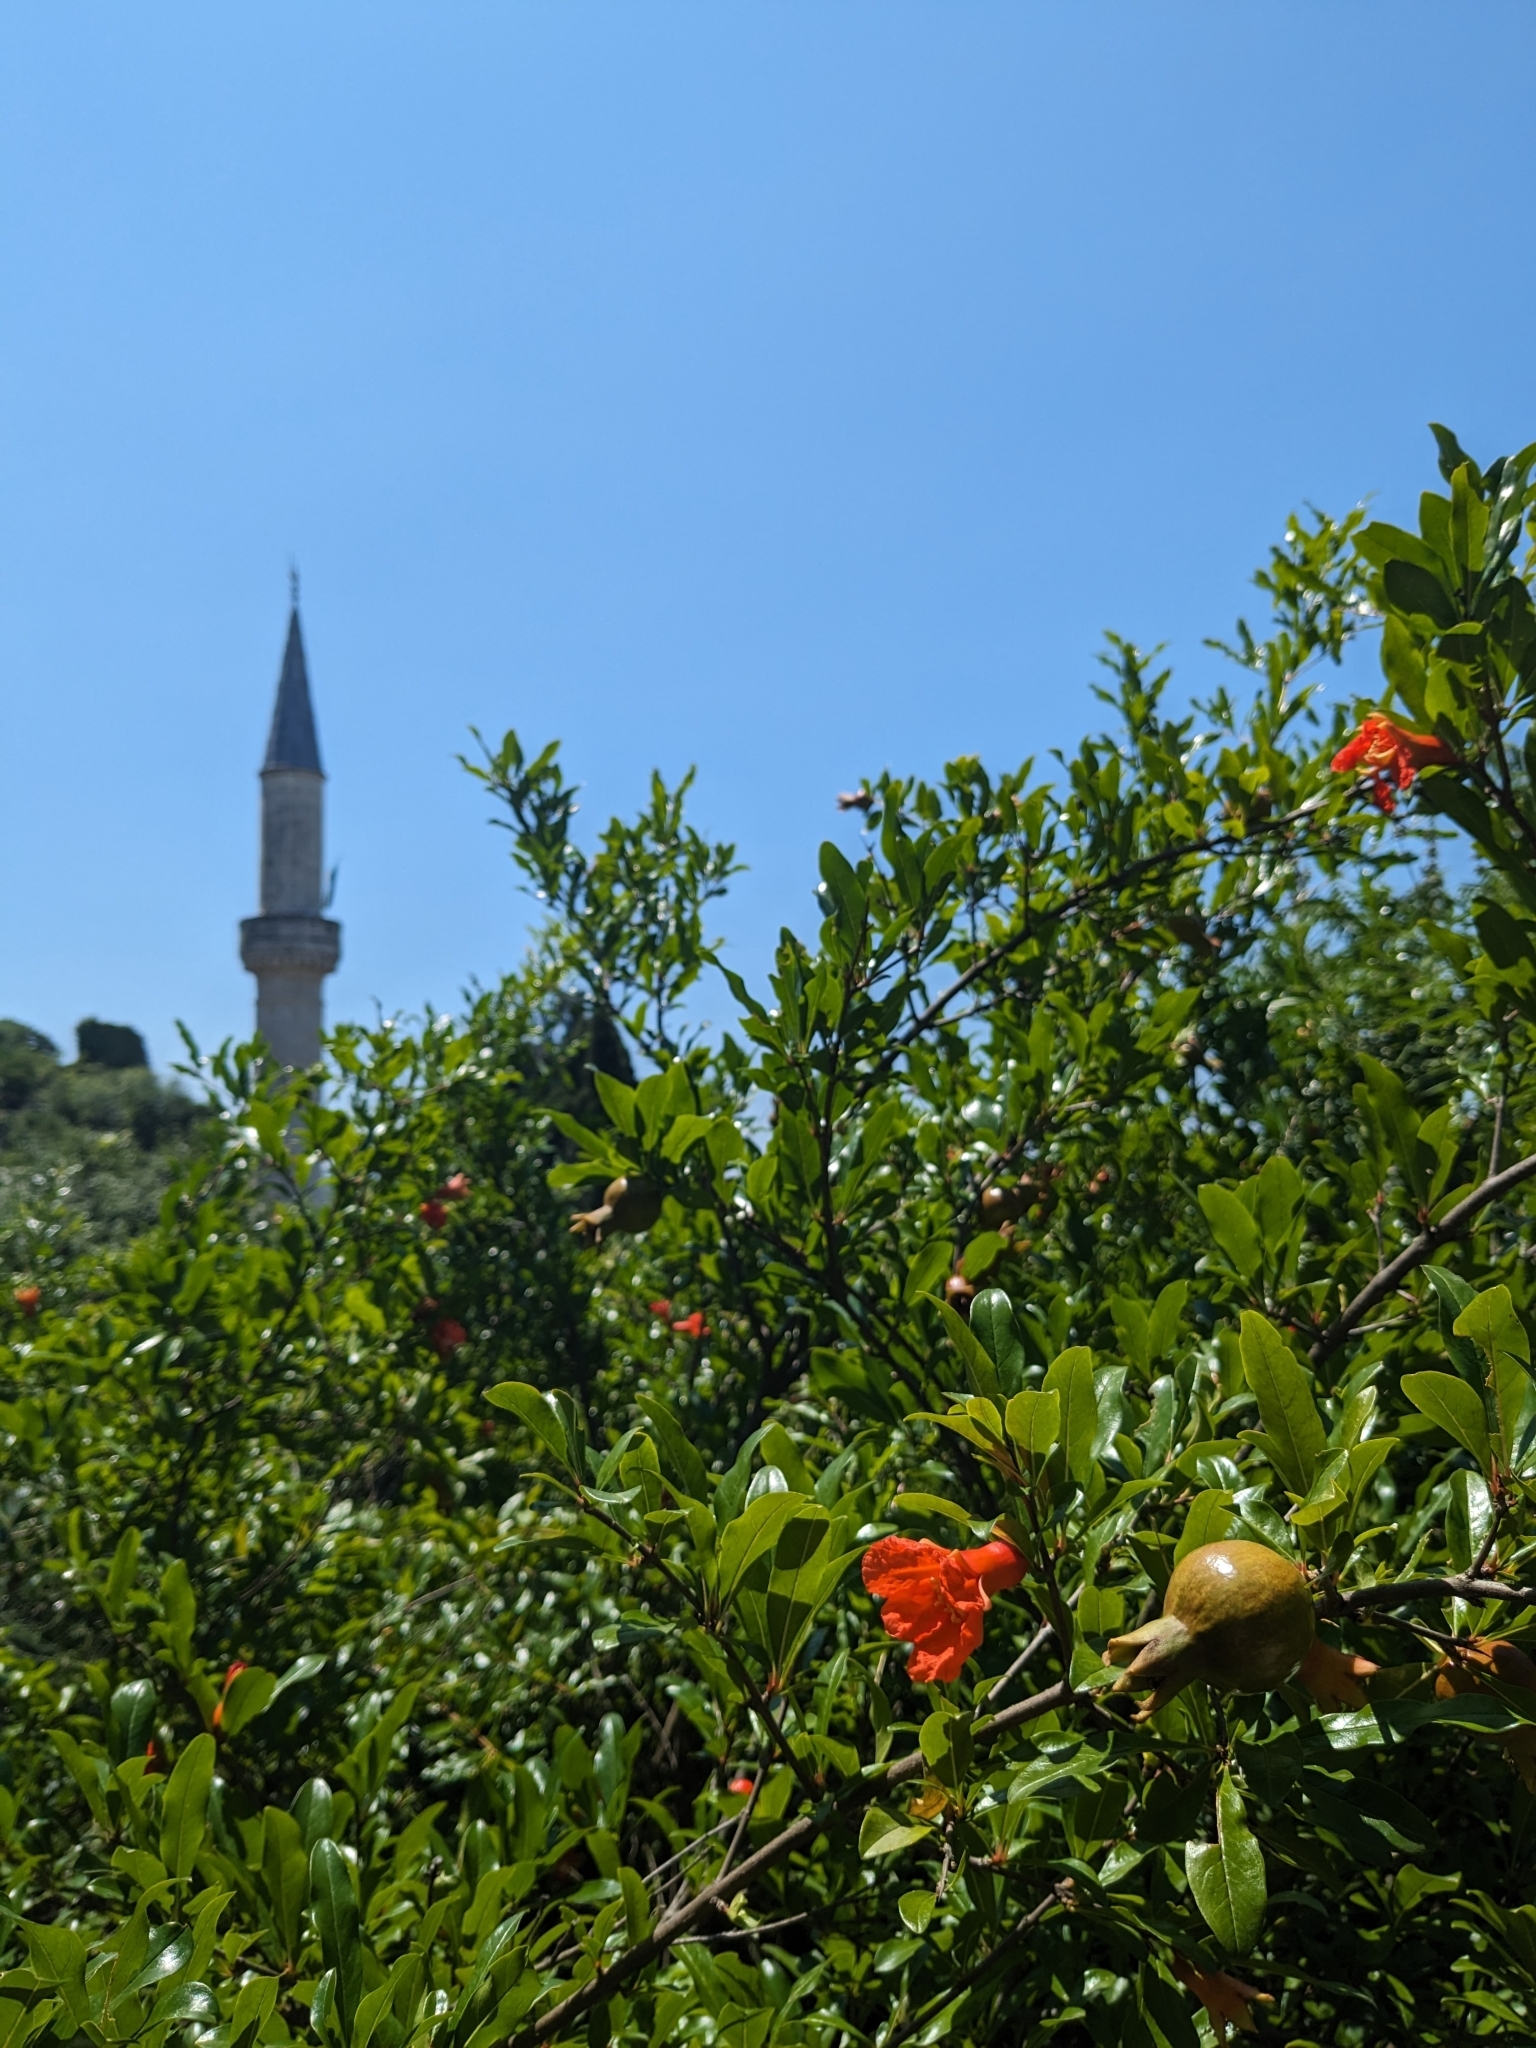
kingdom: Plantae
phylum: Tracheophyta
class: Magnoliopsida
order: Myrtales
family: Lythraceae
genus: Punica
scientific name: Punica granatum
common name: Pomegranate
